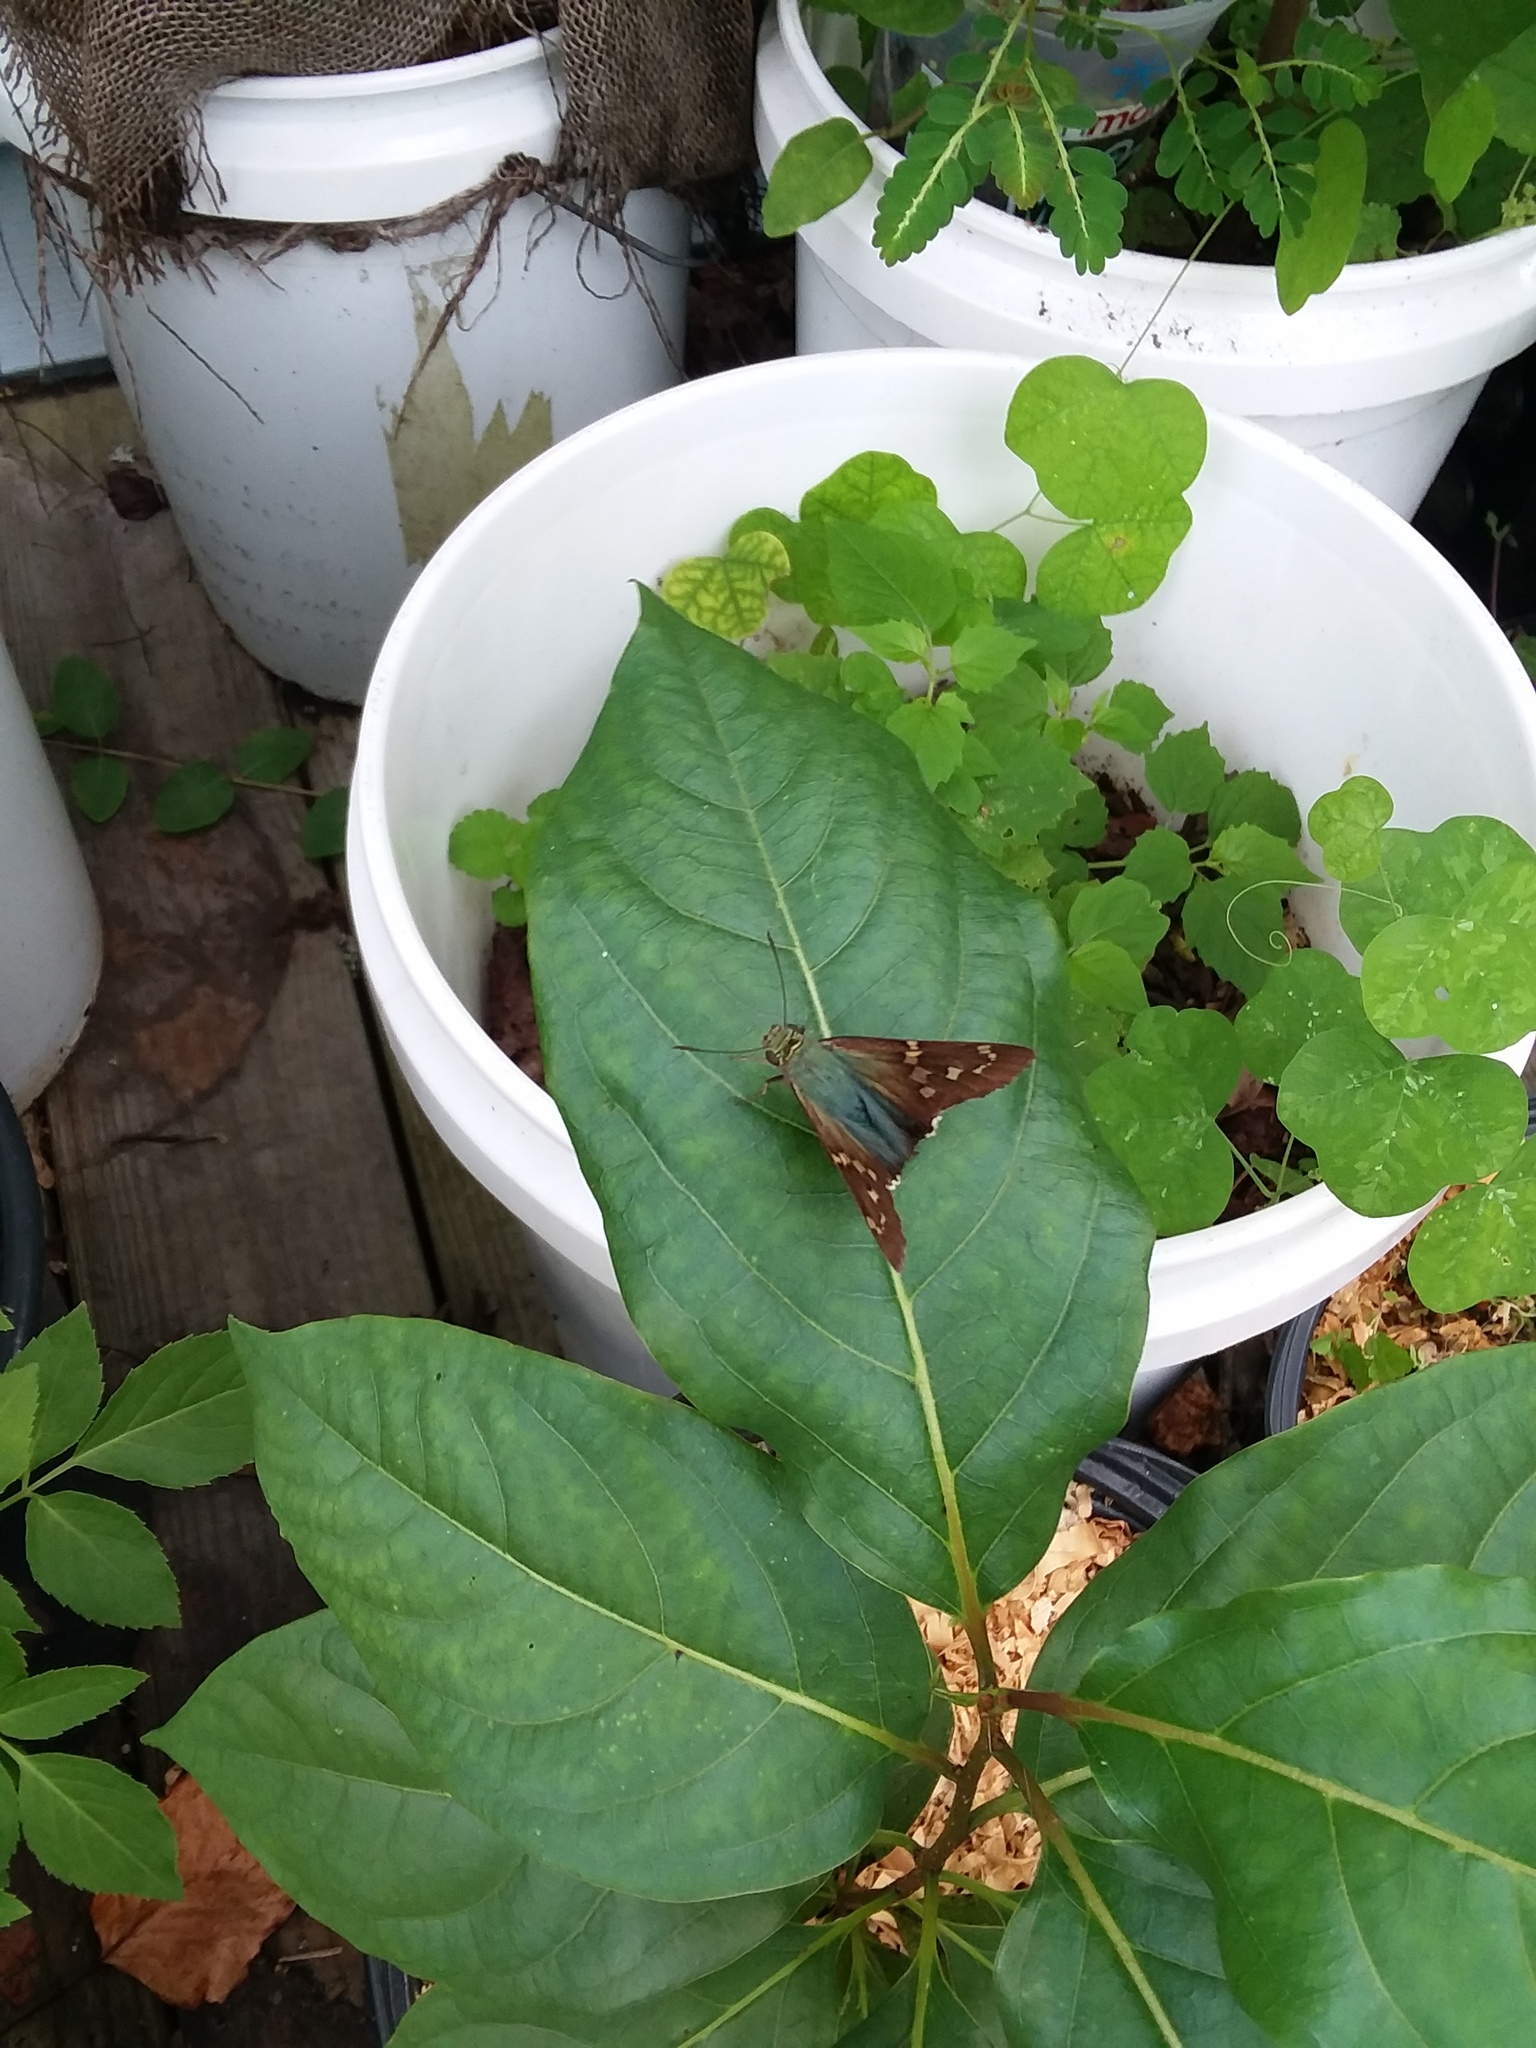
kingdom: Animalia
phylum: Arthropoda
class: Insecta
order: Lepidoptera
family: Hesperiidae
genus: Urbanus
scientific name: Urbanus proteus
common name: Long-tailed skipper
